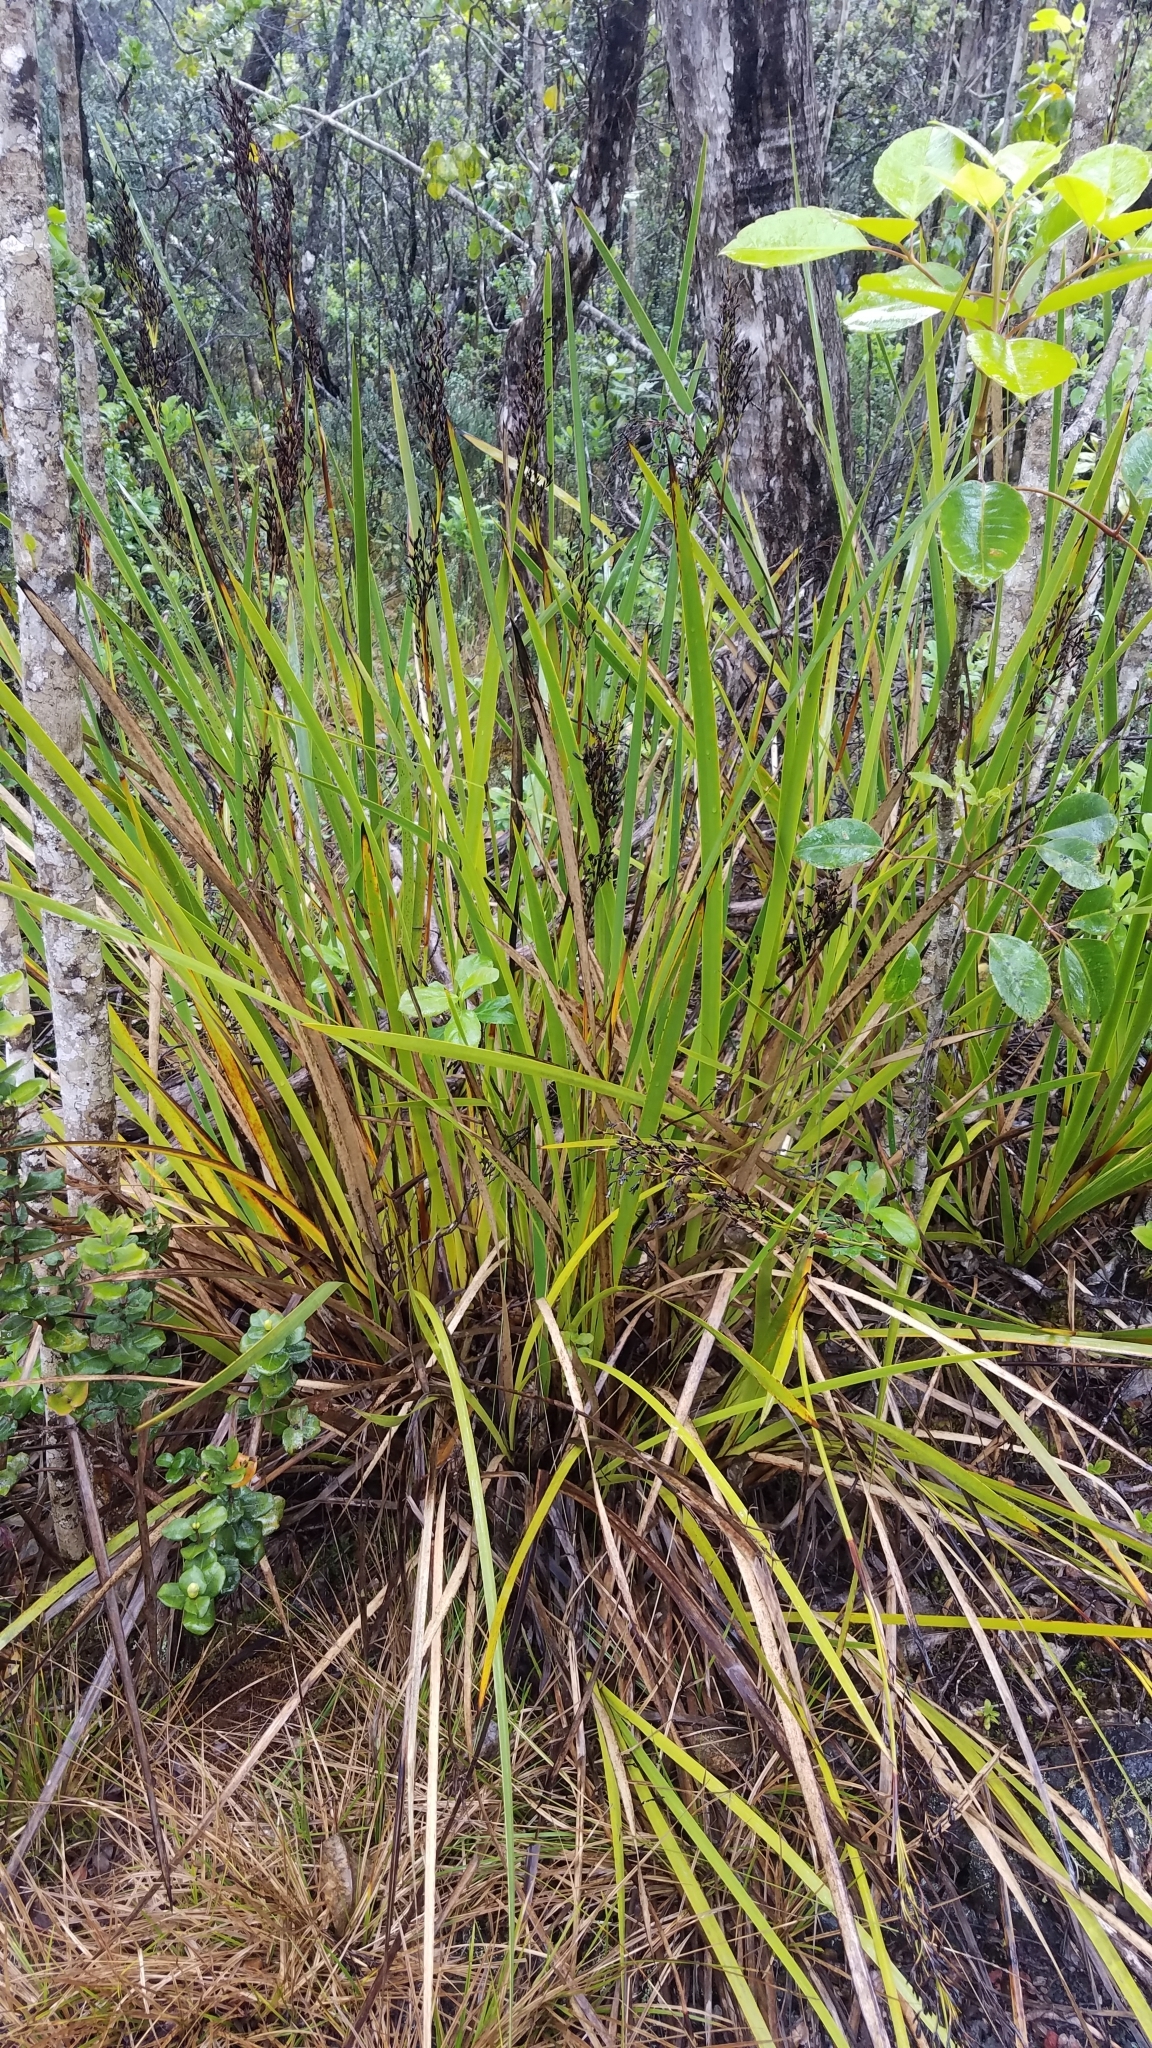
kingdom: Plantae
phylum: Tracheophyta
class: Liliopsida
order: Poales
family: Cyperaceae
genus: Machaerina
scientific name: Machaerina angustifolia
